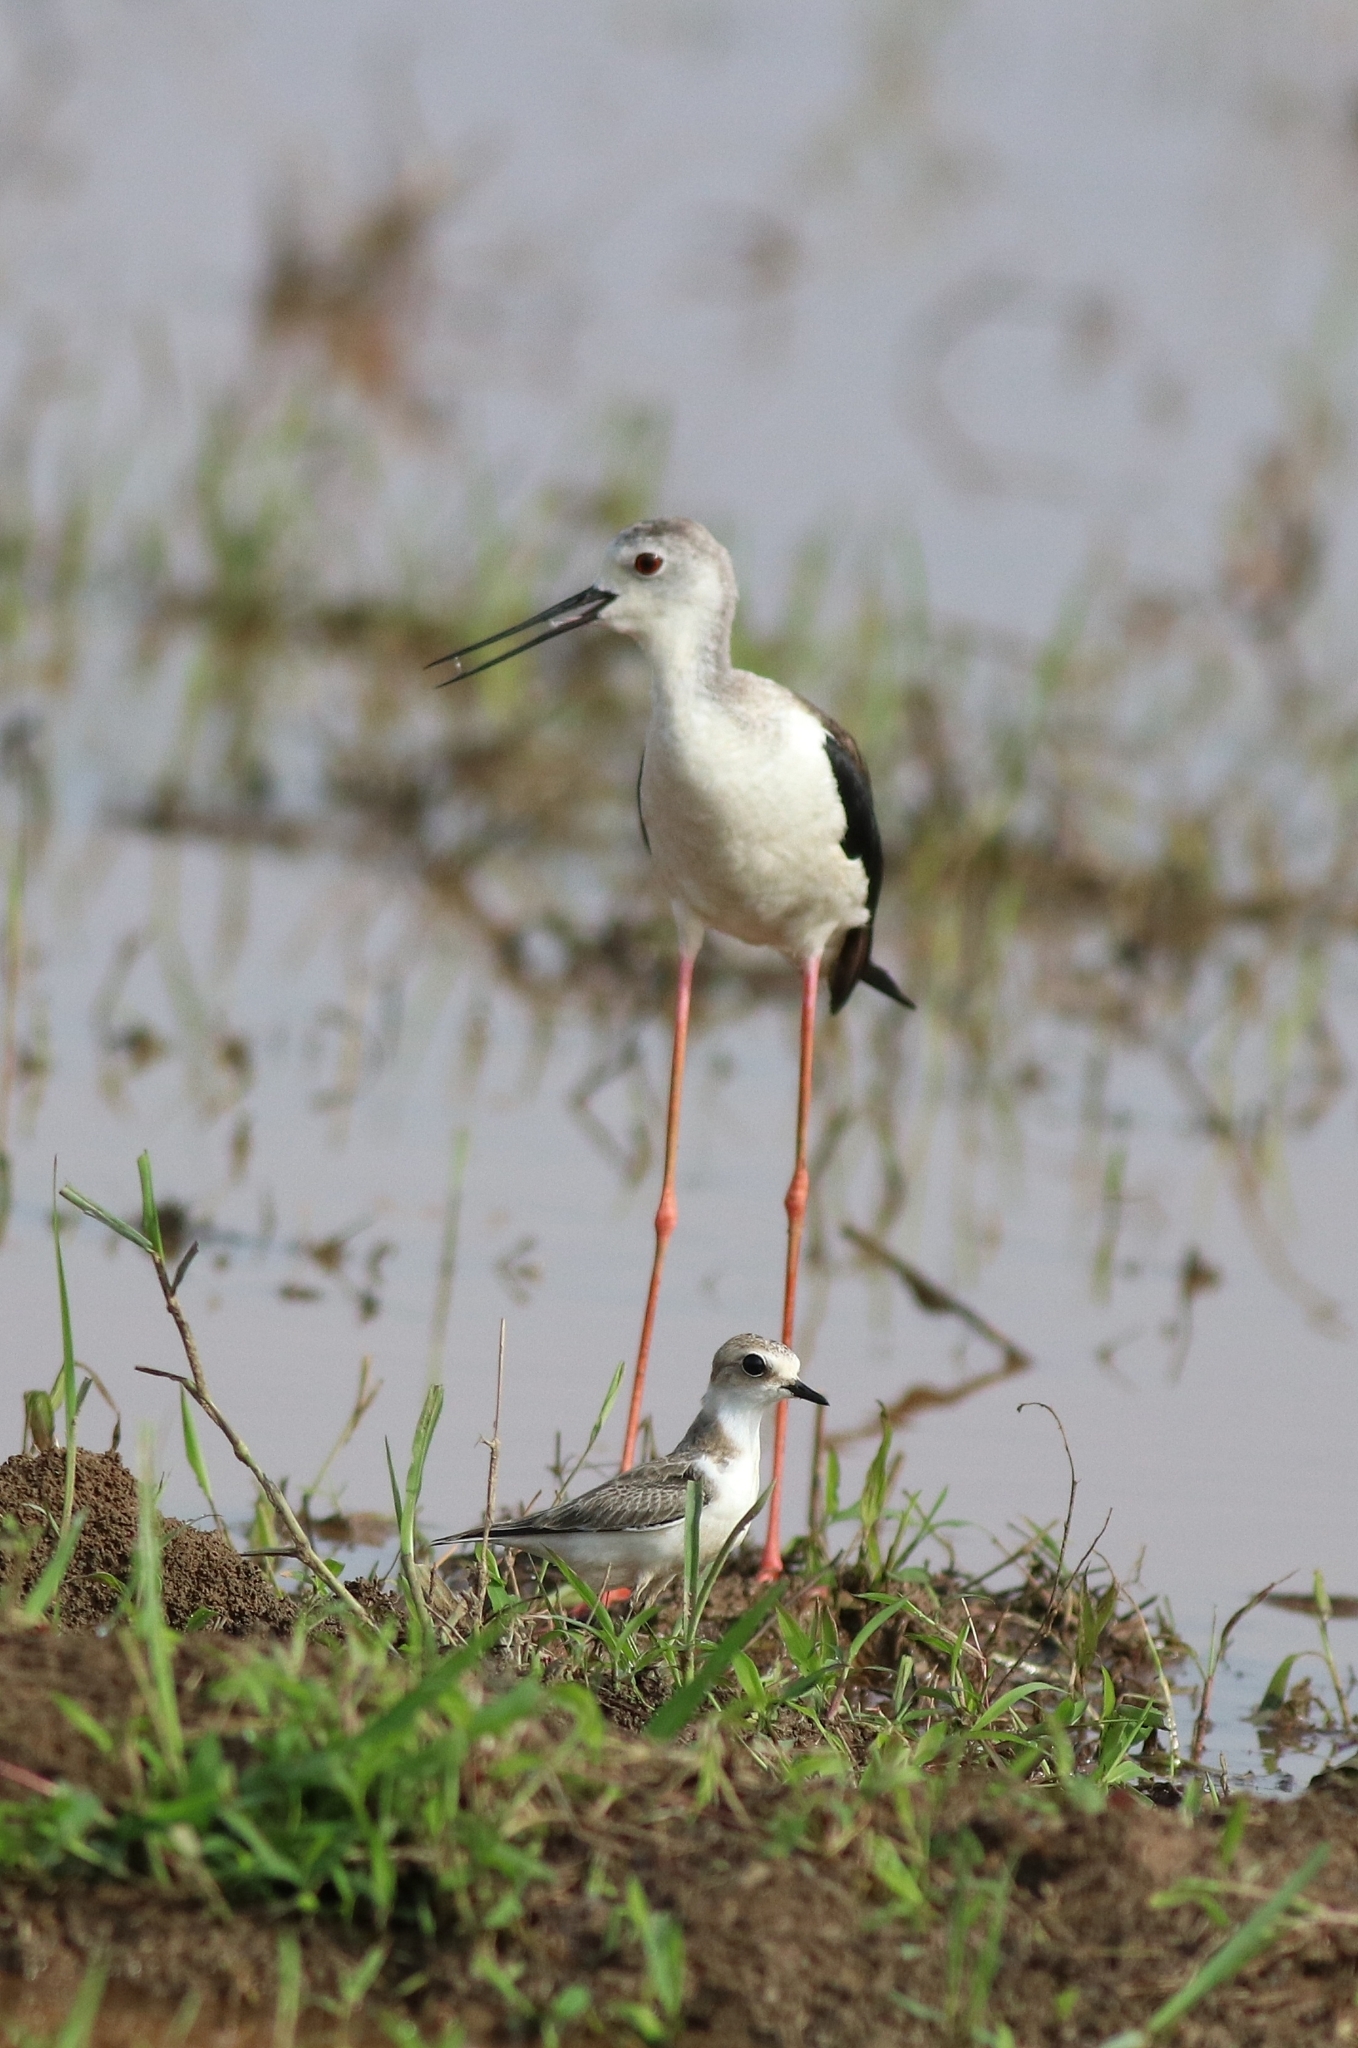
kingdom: Animalia
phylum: Chordata
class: Aves
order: Charadriiformes
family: Charadriidae
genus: Charadrius
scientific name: Charadrius alexandrinus
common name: Kentish plover
